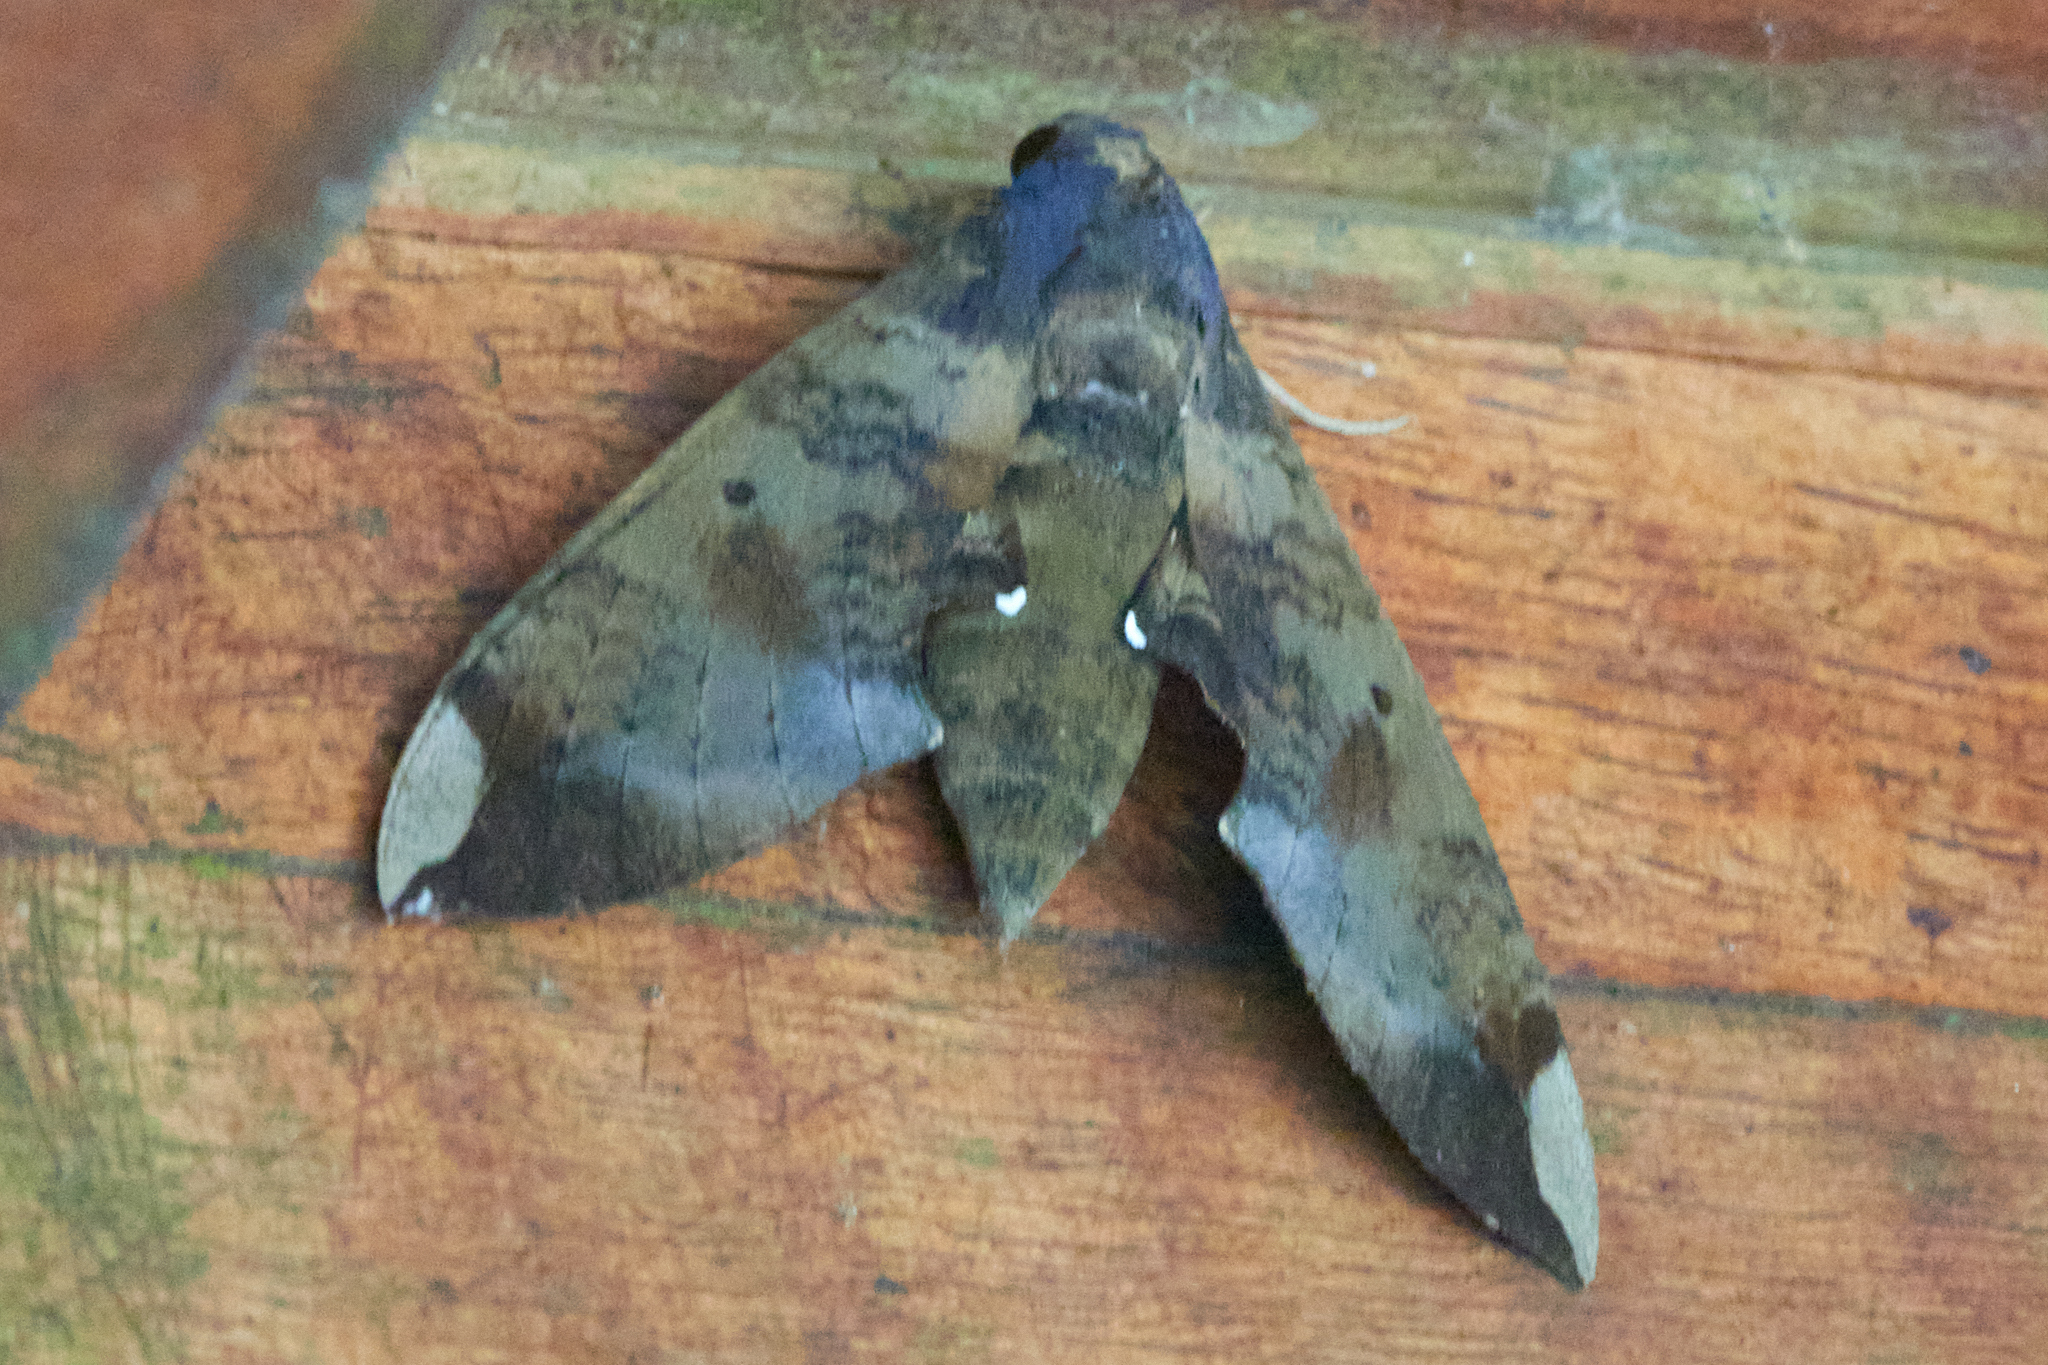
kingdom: Animalia
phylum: Arthropoda
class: Insecta
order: Lepidoptera
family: Sphingidae
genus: Pachylia
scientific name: Pachylia ficus
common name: Fig sphinx
